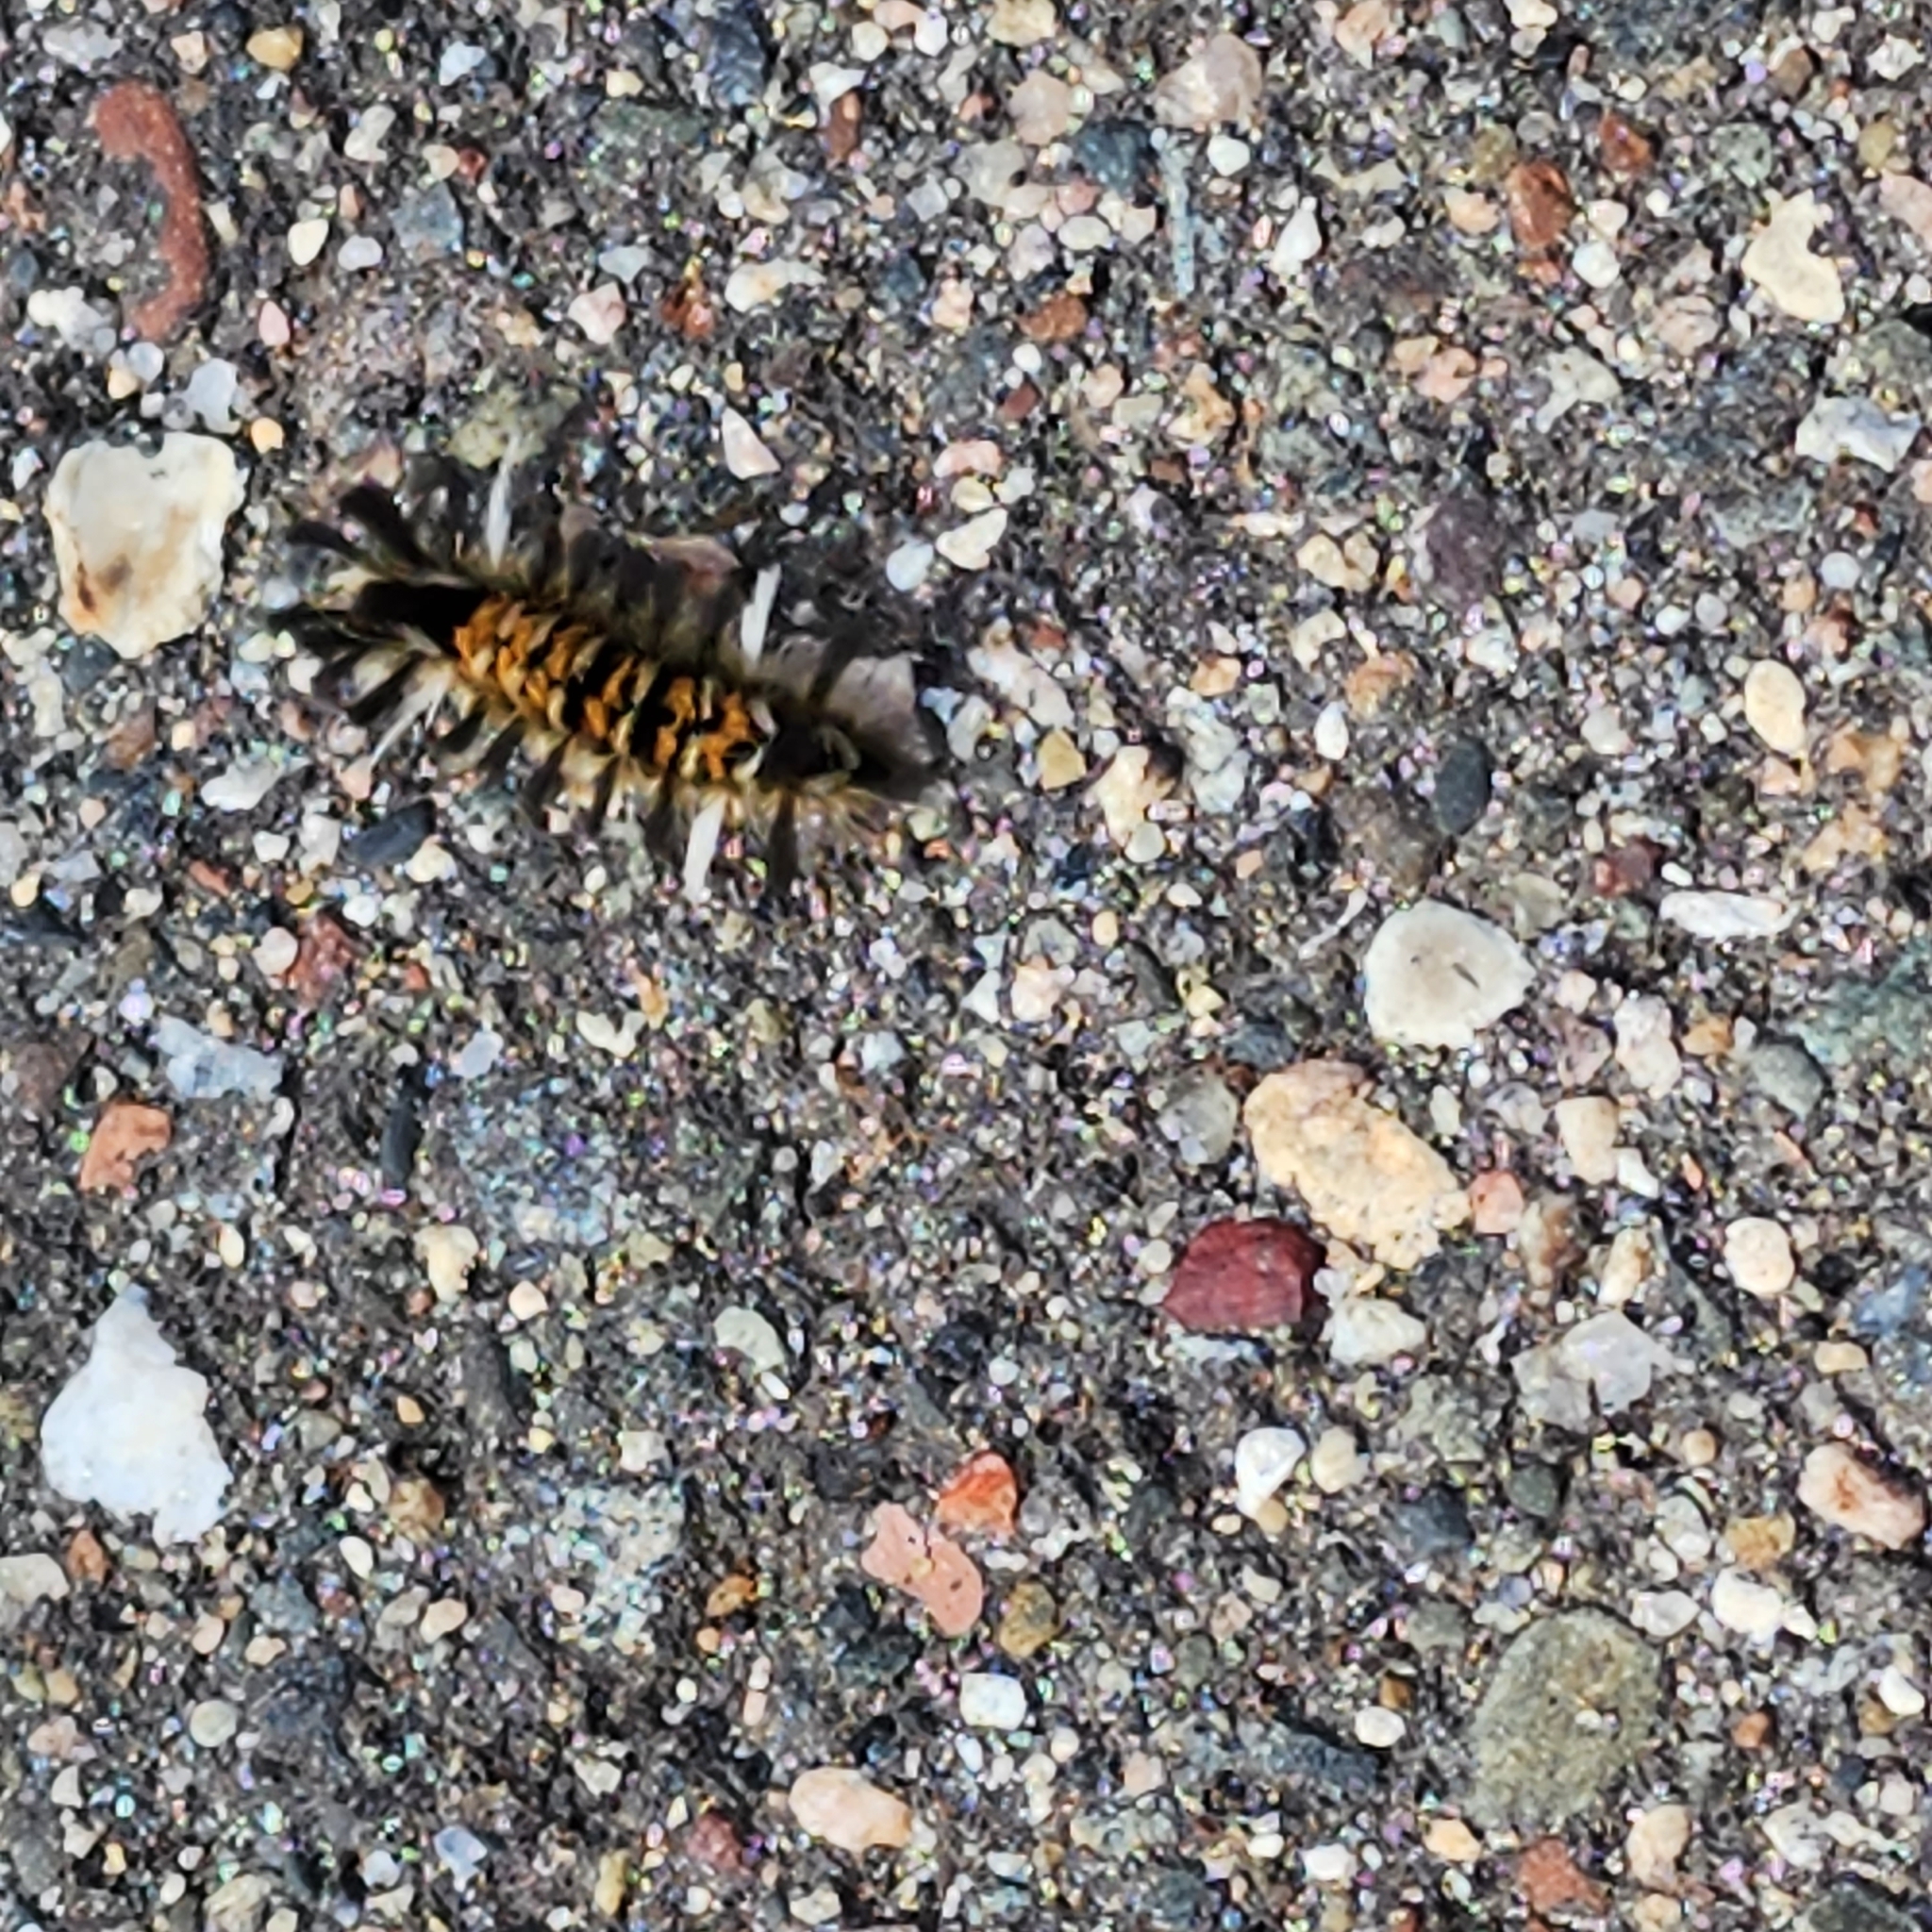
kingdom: Animalia
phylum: Arthropoda
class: Insecta
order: Lepidoptera
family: Erebidae
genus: Euchaetes
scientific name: Euchaetes egle
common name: Milkweed tussock moth
